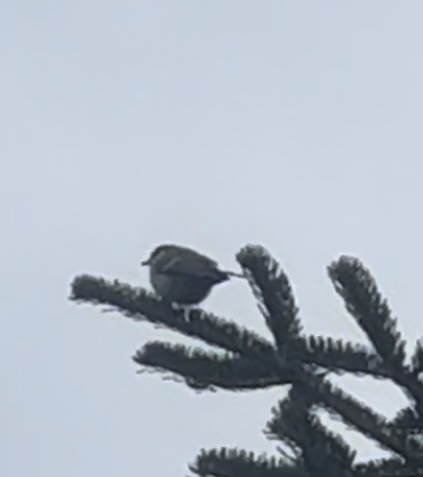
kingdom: Animalia
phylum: Chordata
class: Aves
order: Passeriformes
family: Paridae
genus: Parus
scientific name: Parus major
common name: Great tit
